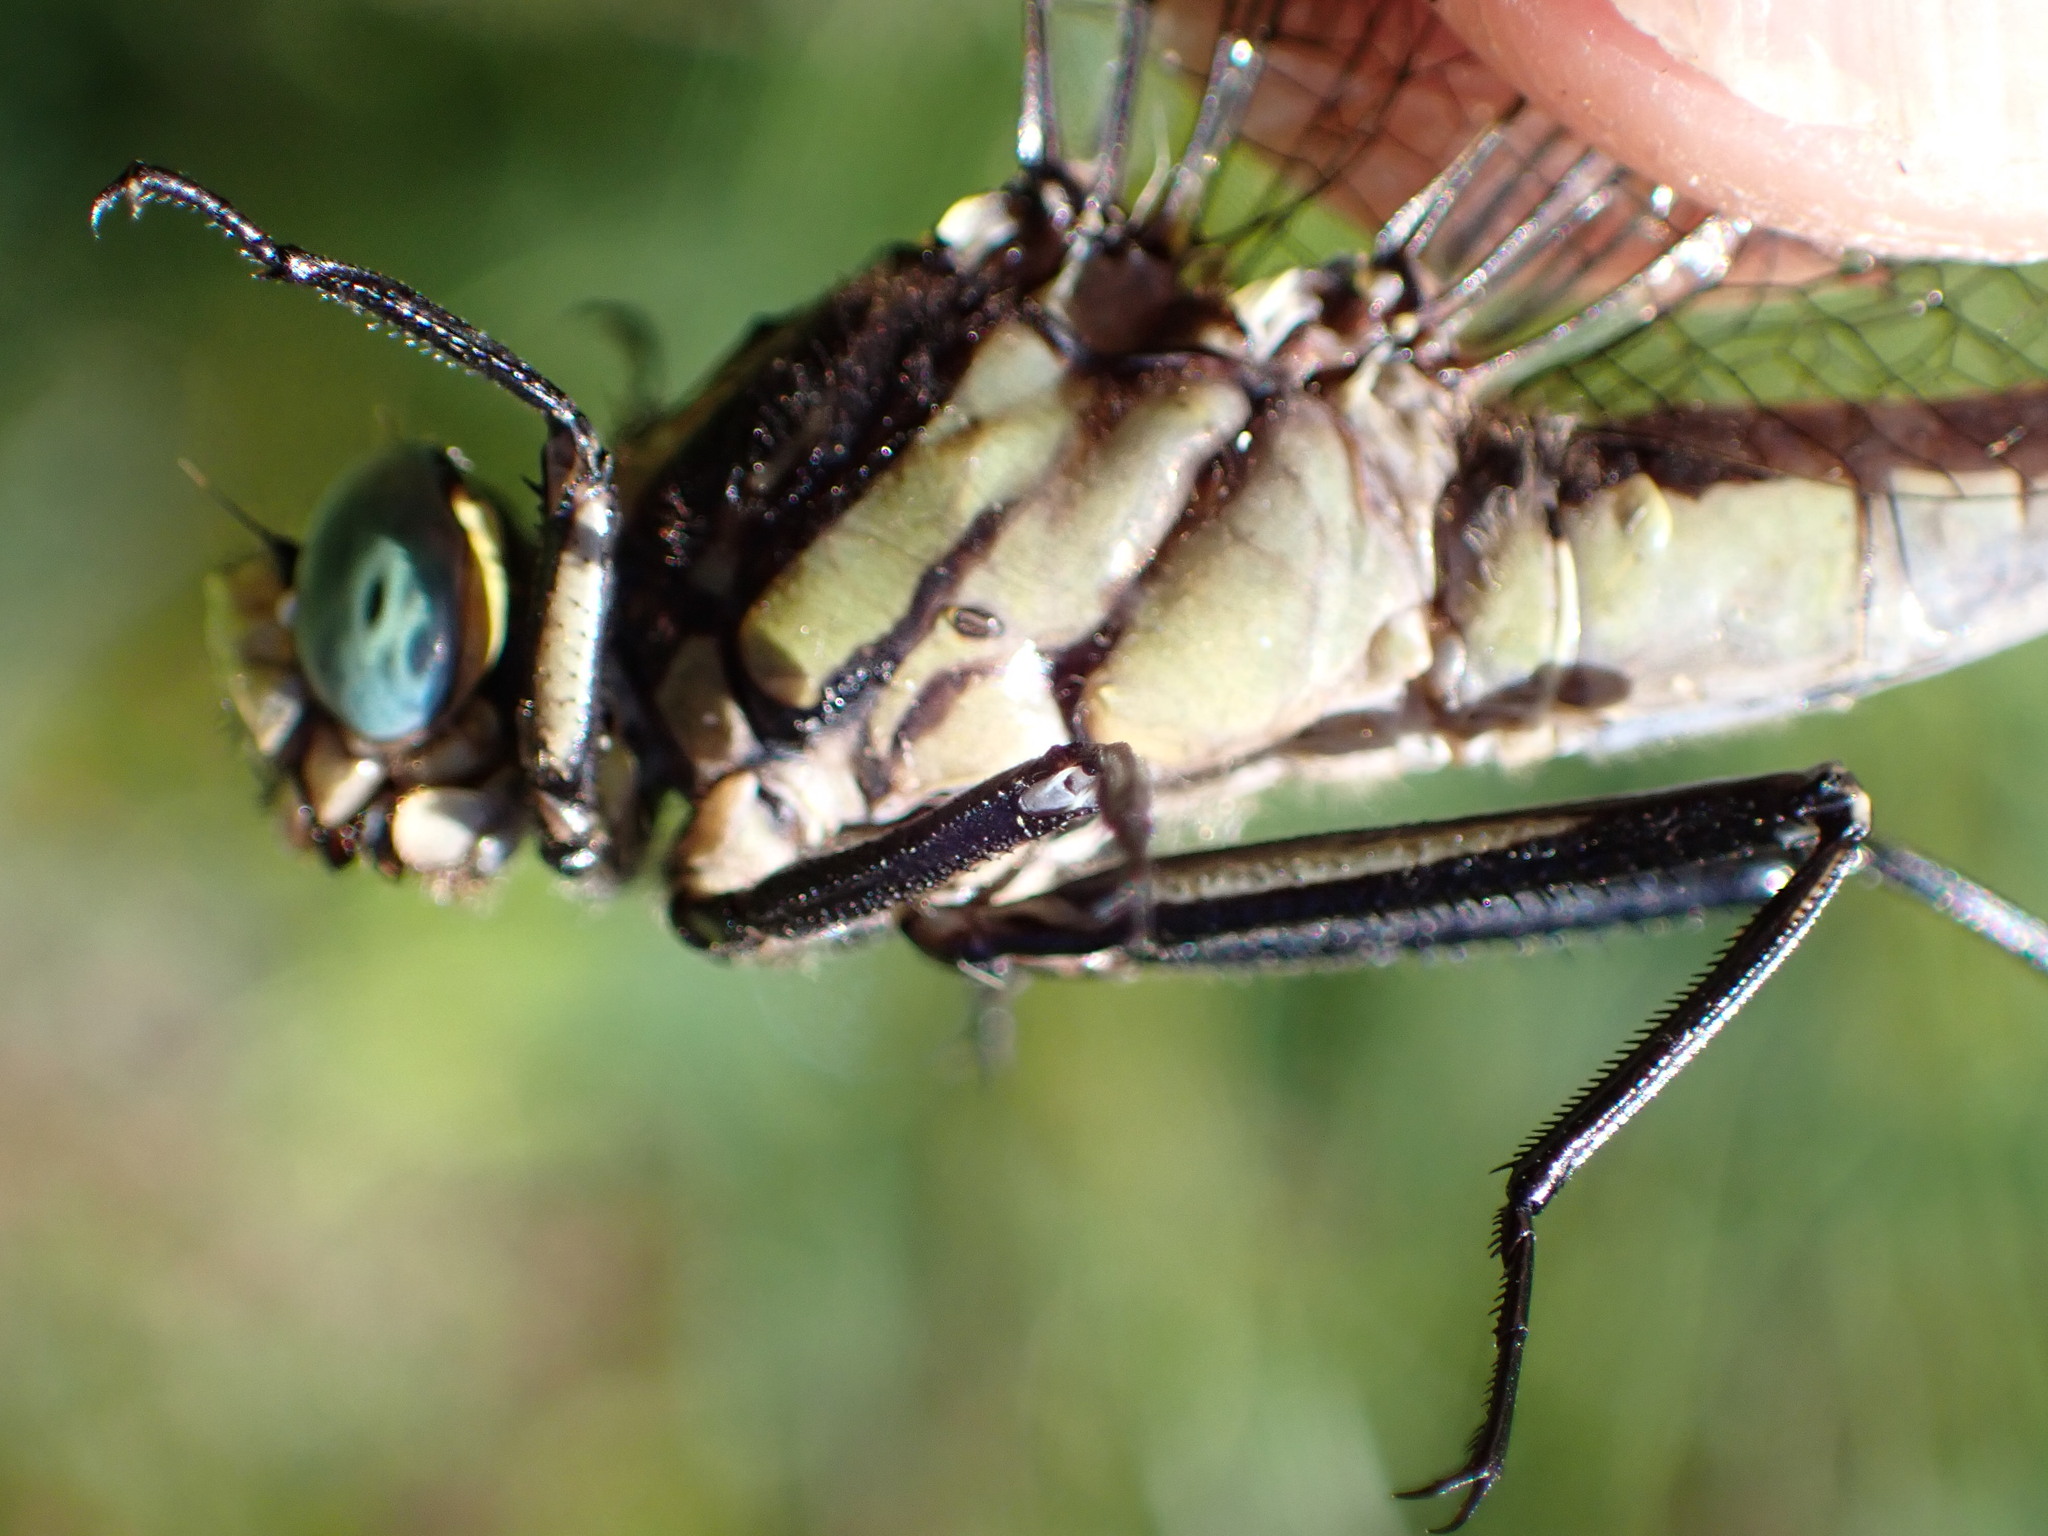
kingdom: Animalia
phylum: Arthropoda
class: Insecta
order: Odonata
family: Gomphidae
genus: Gomphurus
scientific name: Gomphurus fraternus
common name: Midland clubtail
